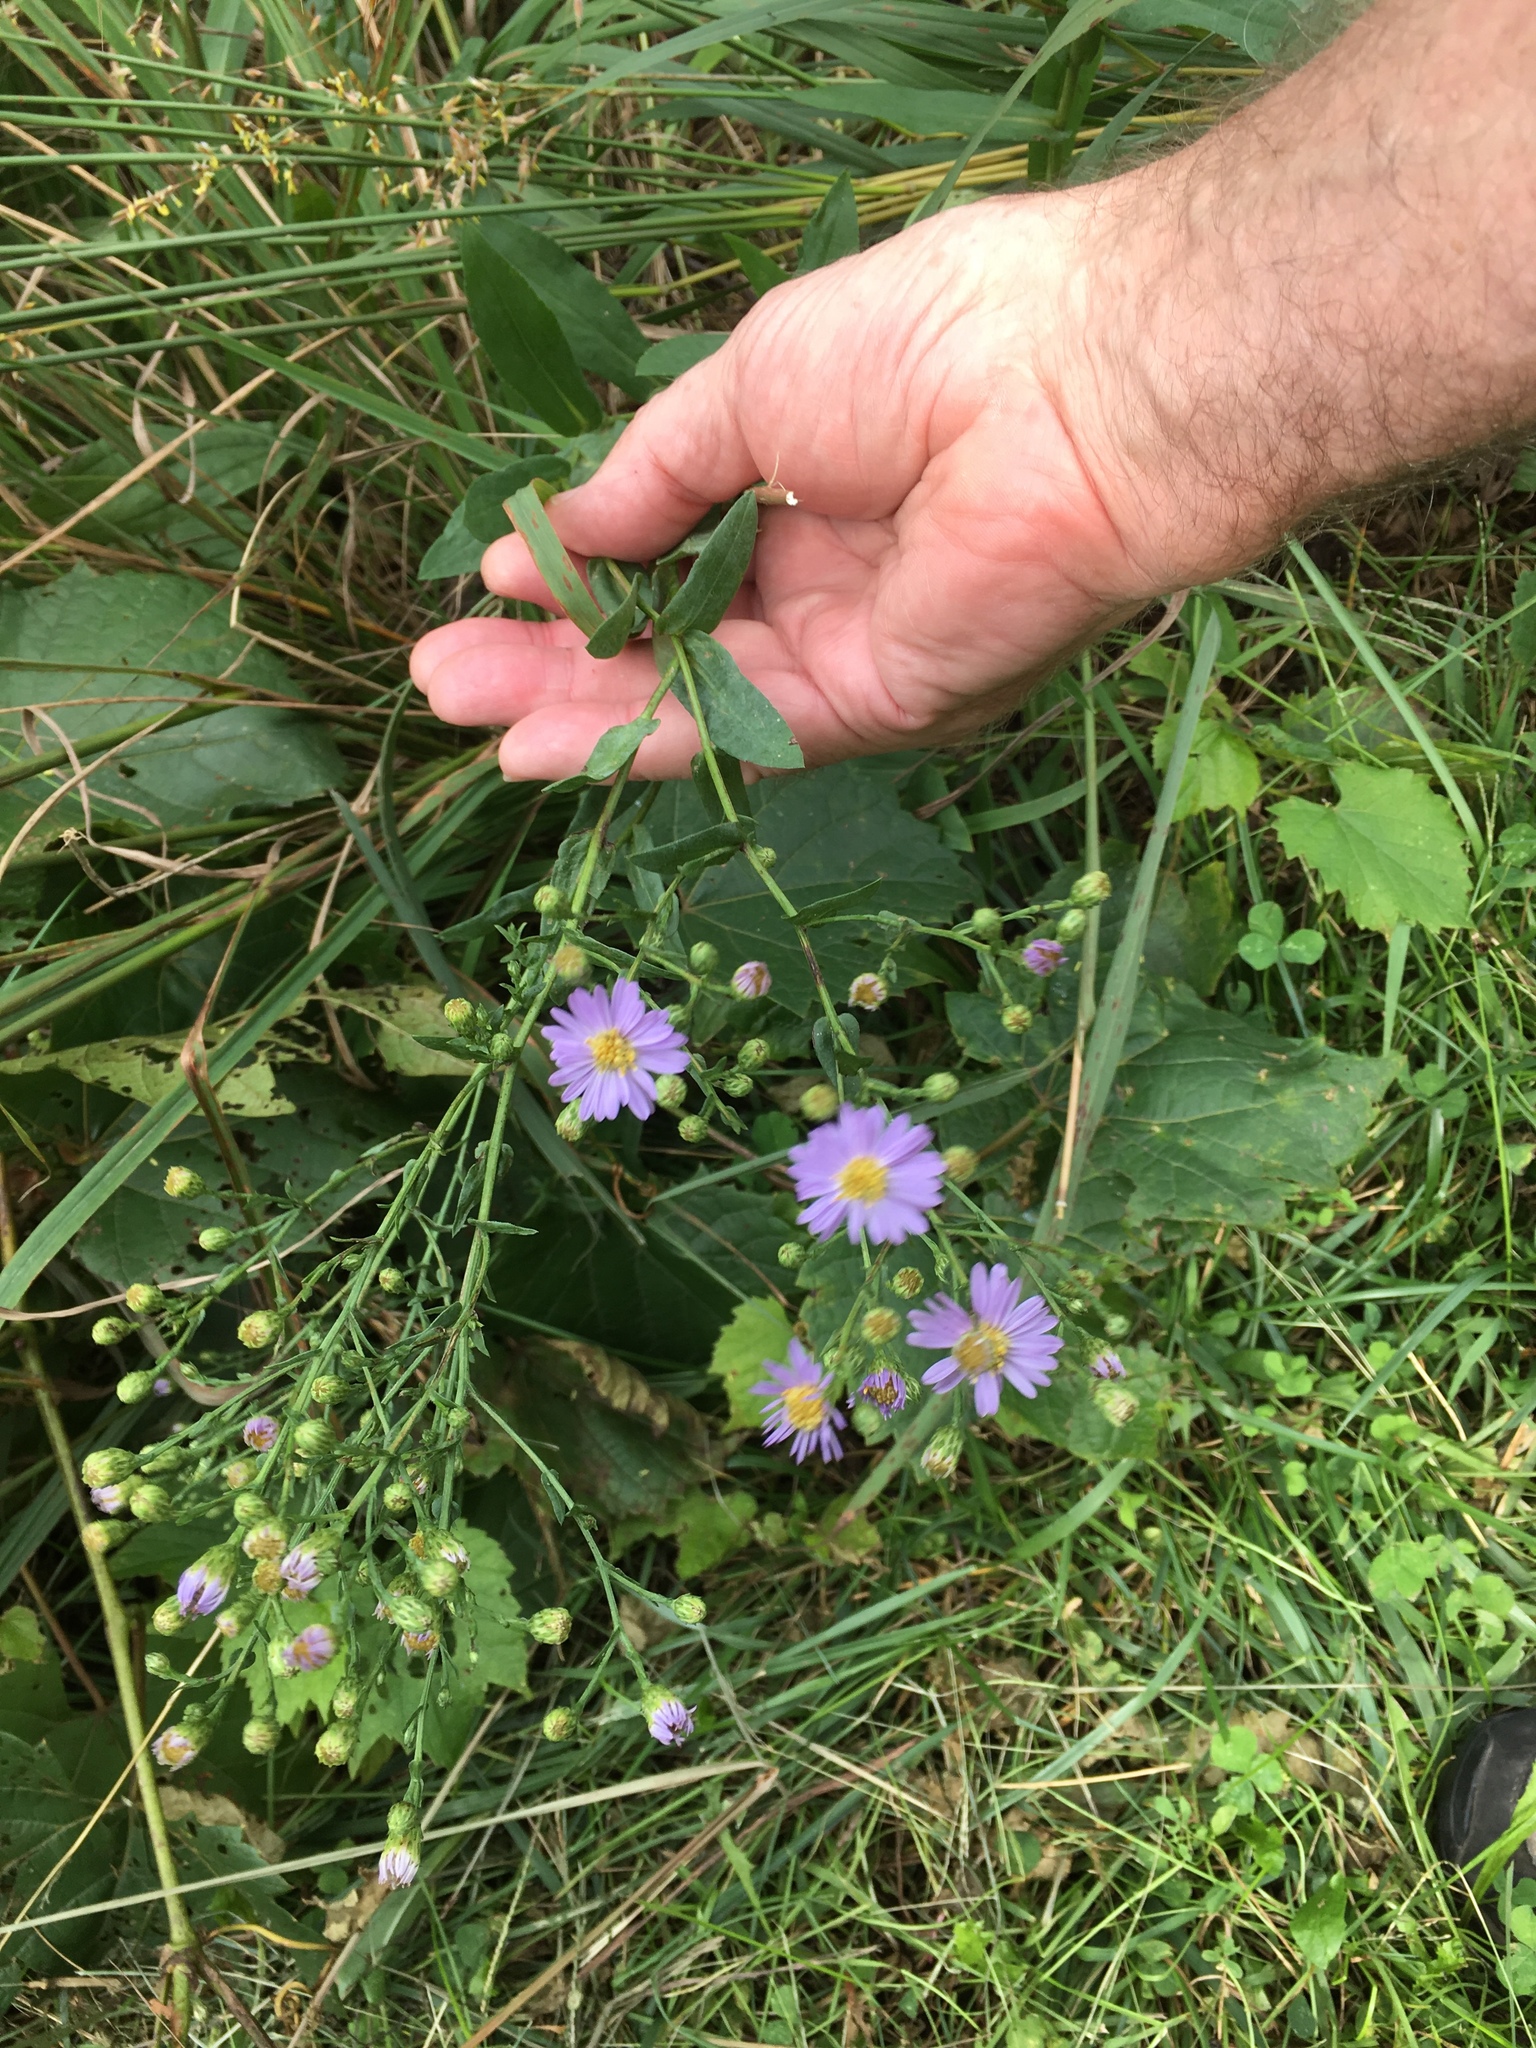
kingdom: Plantae
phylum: Tracheophyta
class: Magnoliopsida
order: Asterales
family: Asteraceae
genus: Symphyotrichum
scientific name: Symphyotrichum laeve
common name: Glaucous aster
